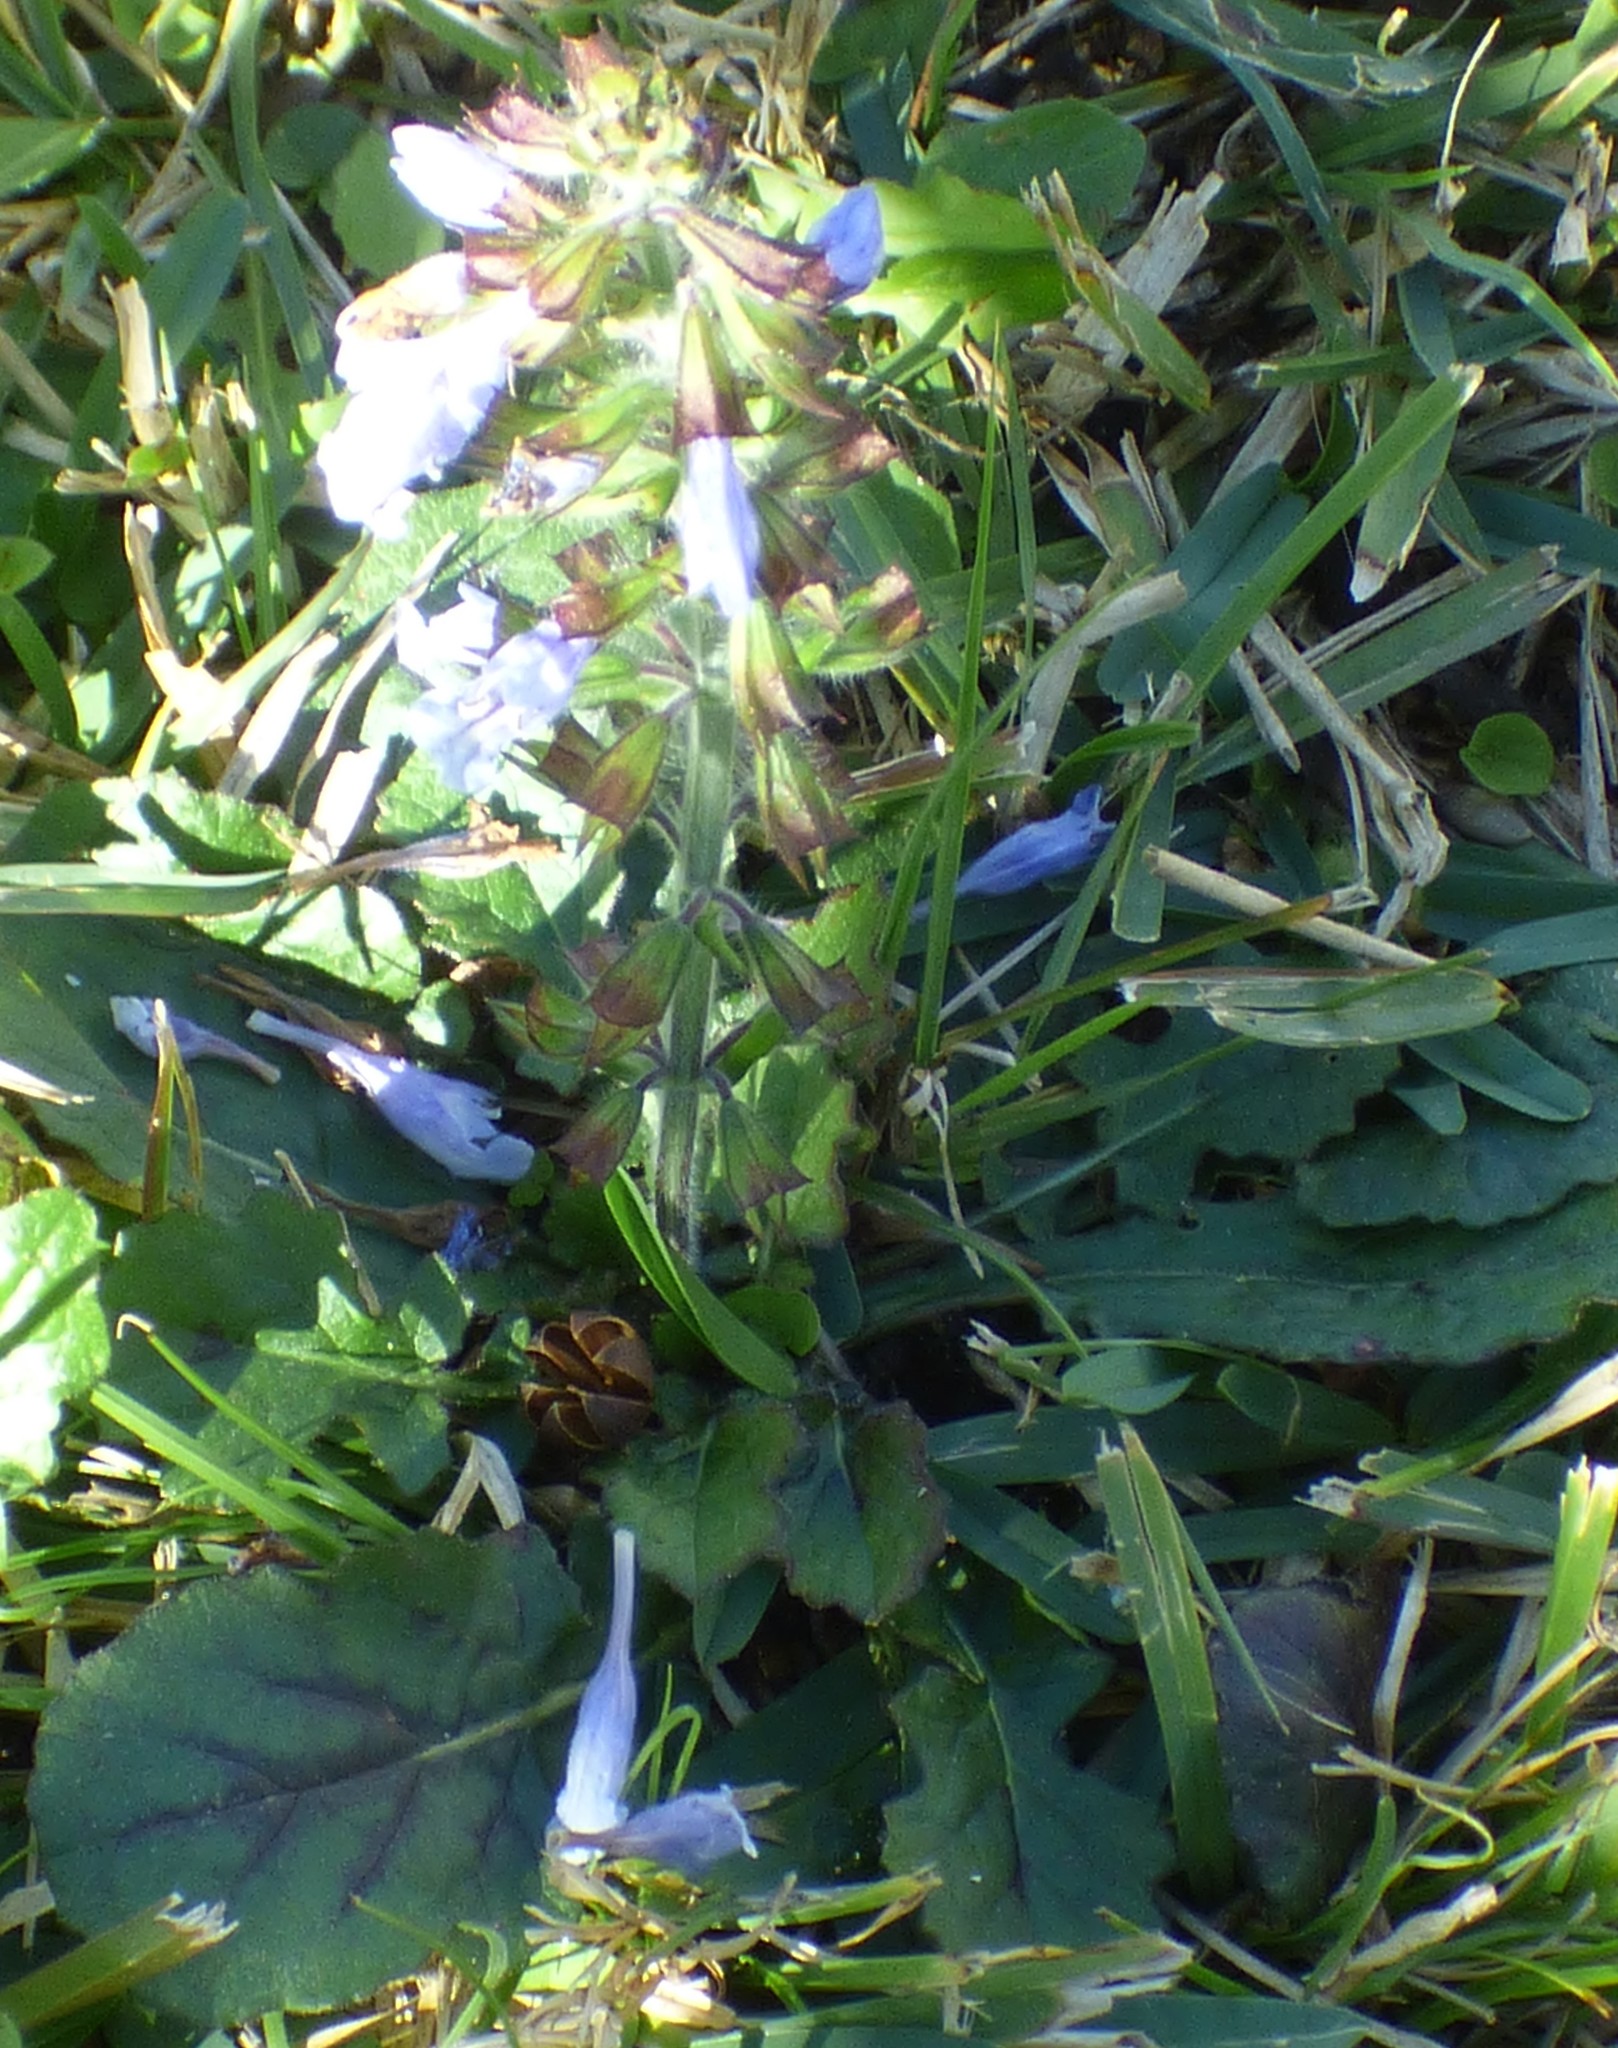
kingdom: Plantae
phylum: Tracheophyta
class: Magnoliopsida
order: Lamiales
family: Lamiaceae
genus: Salvia
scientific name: Salvia lyrata
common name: Cancerweed
